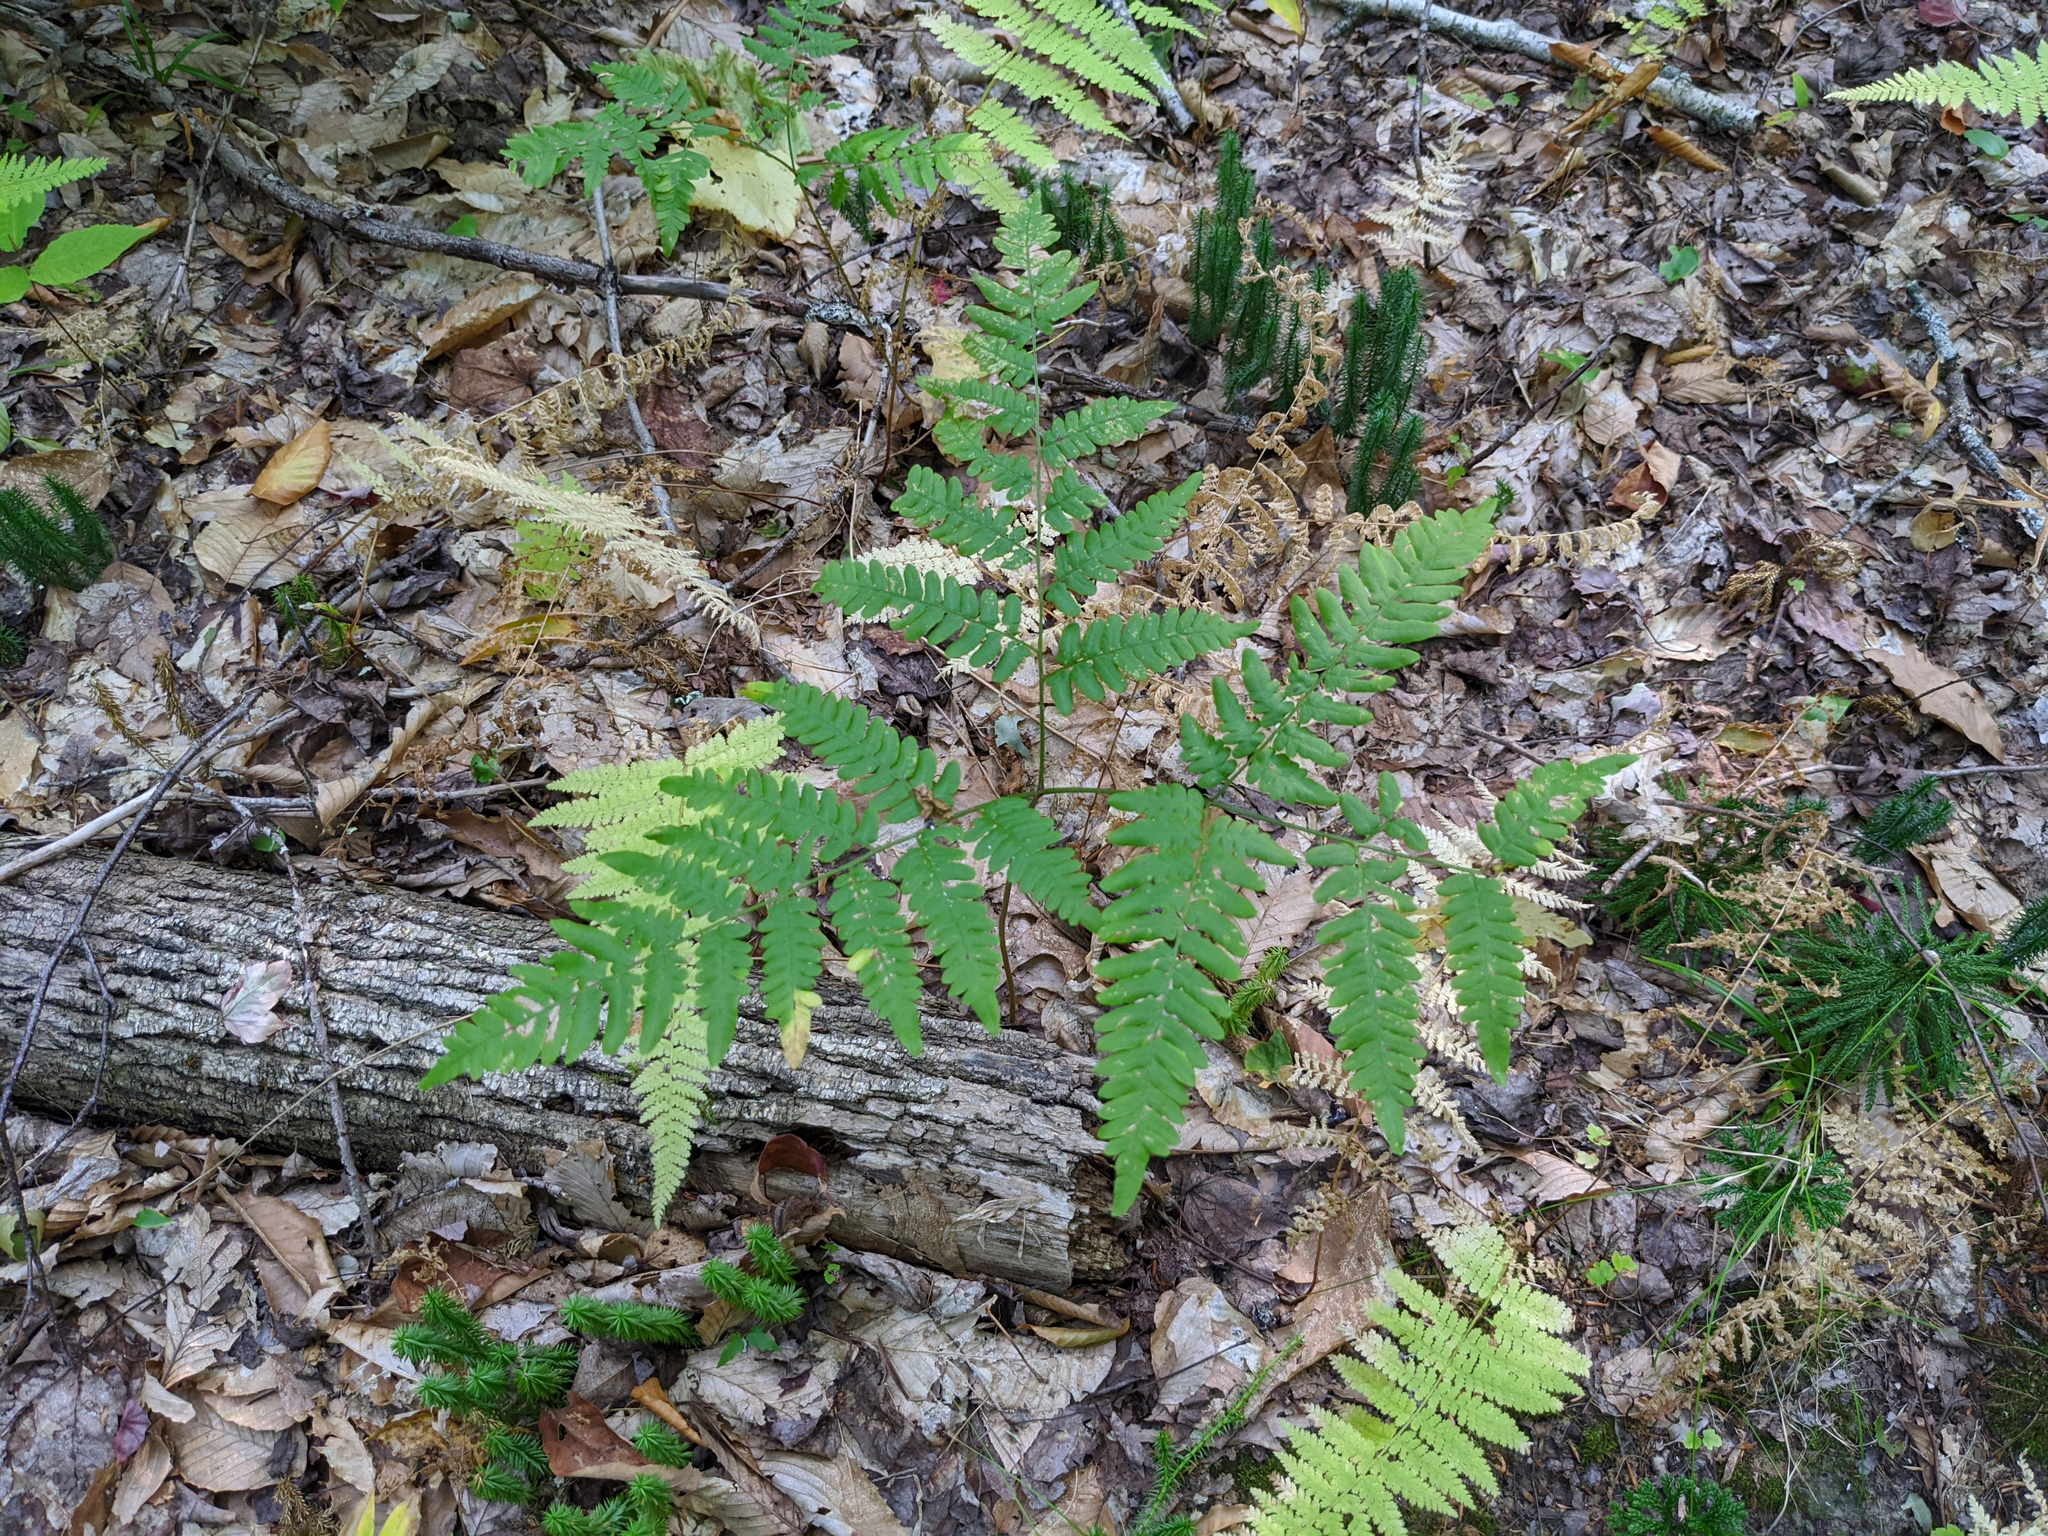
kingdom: Plantae
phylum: Tracheophyta
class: Polypodiopsida
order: Polypodiales
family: Dennstaedtiaceae
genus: Pteridium
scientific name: Pteridium aquilinum
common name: Bracken
